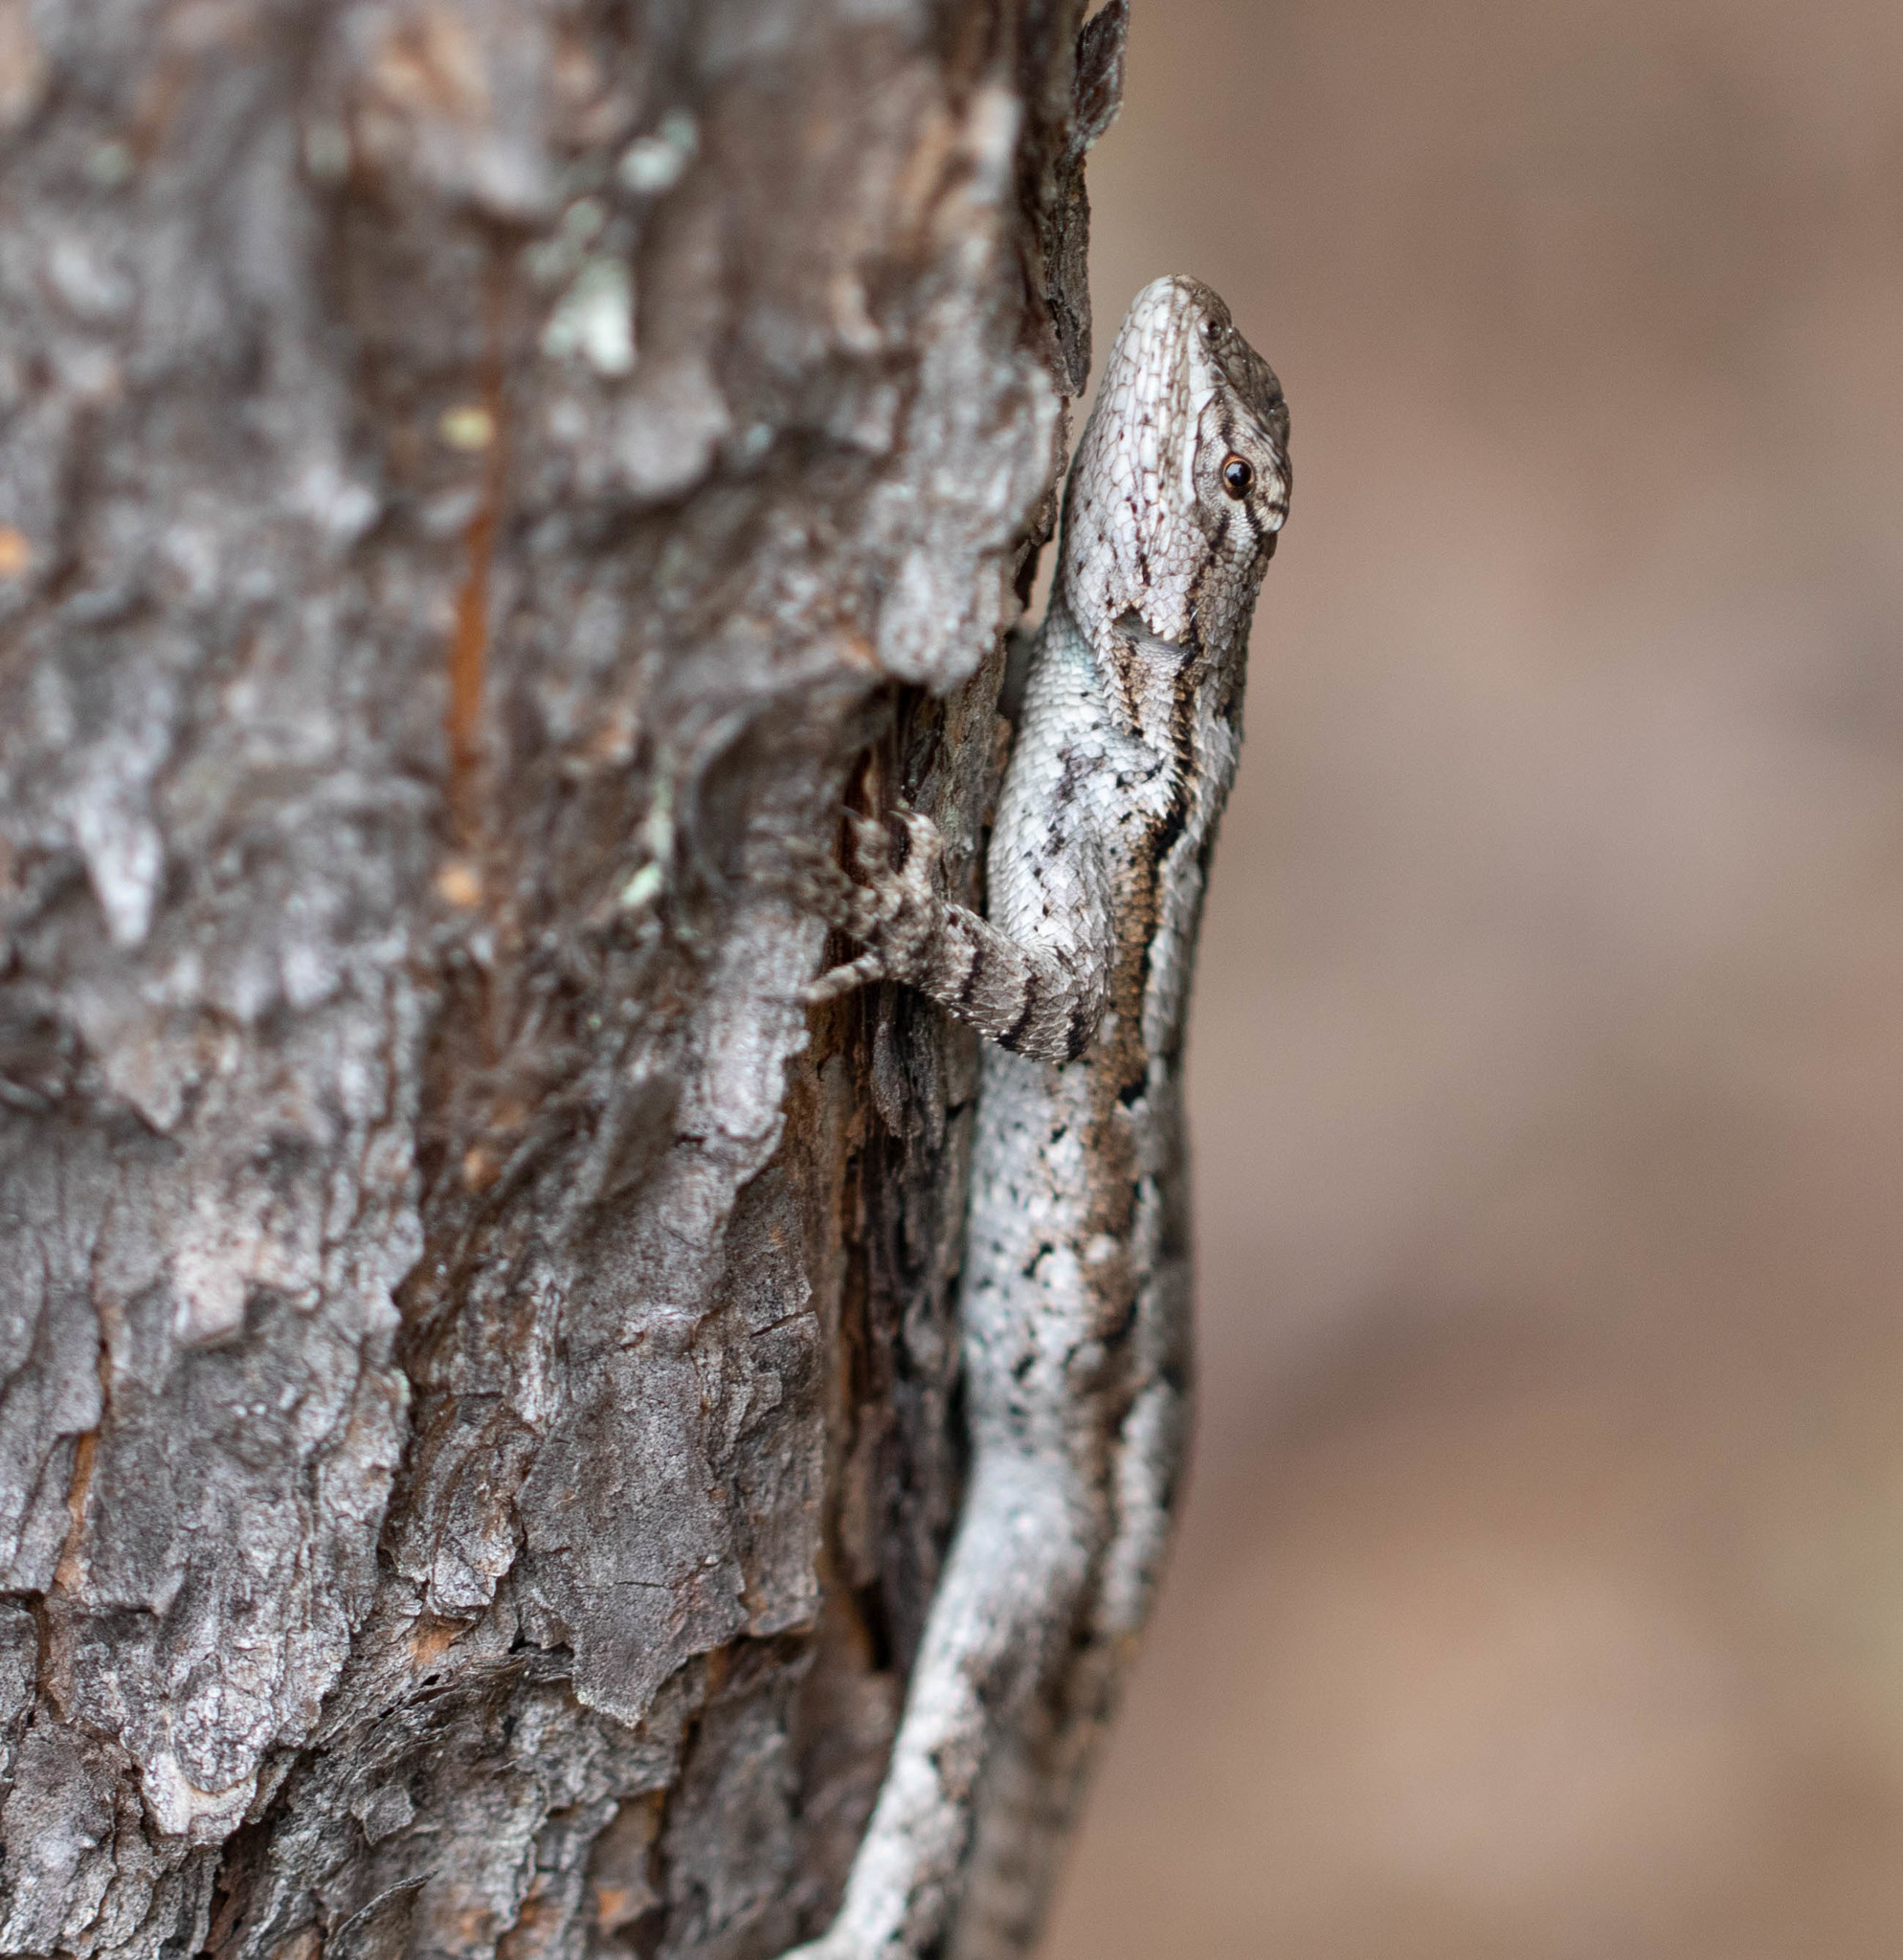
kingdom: Animalia
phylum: Chordata
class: Squamata
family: Phrynosomatidae
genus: Sceloporus
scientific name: Sceloporus undulatus
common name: Eastern fence lizard
